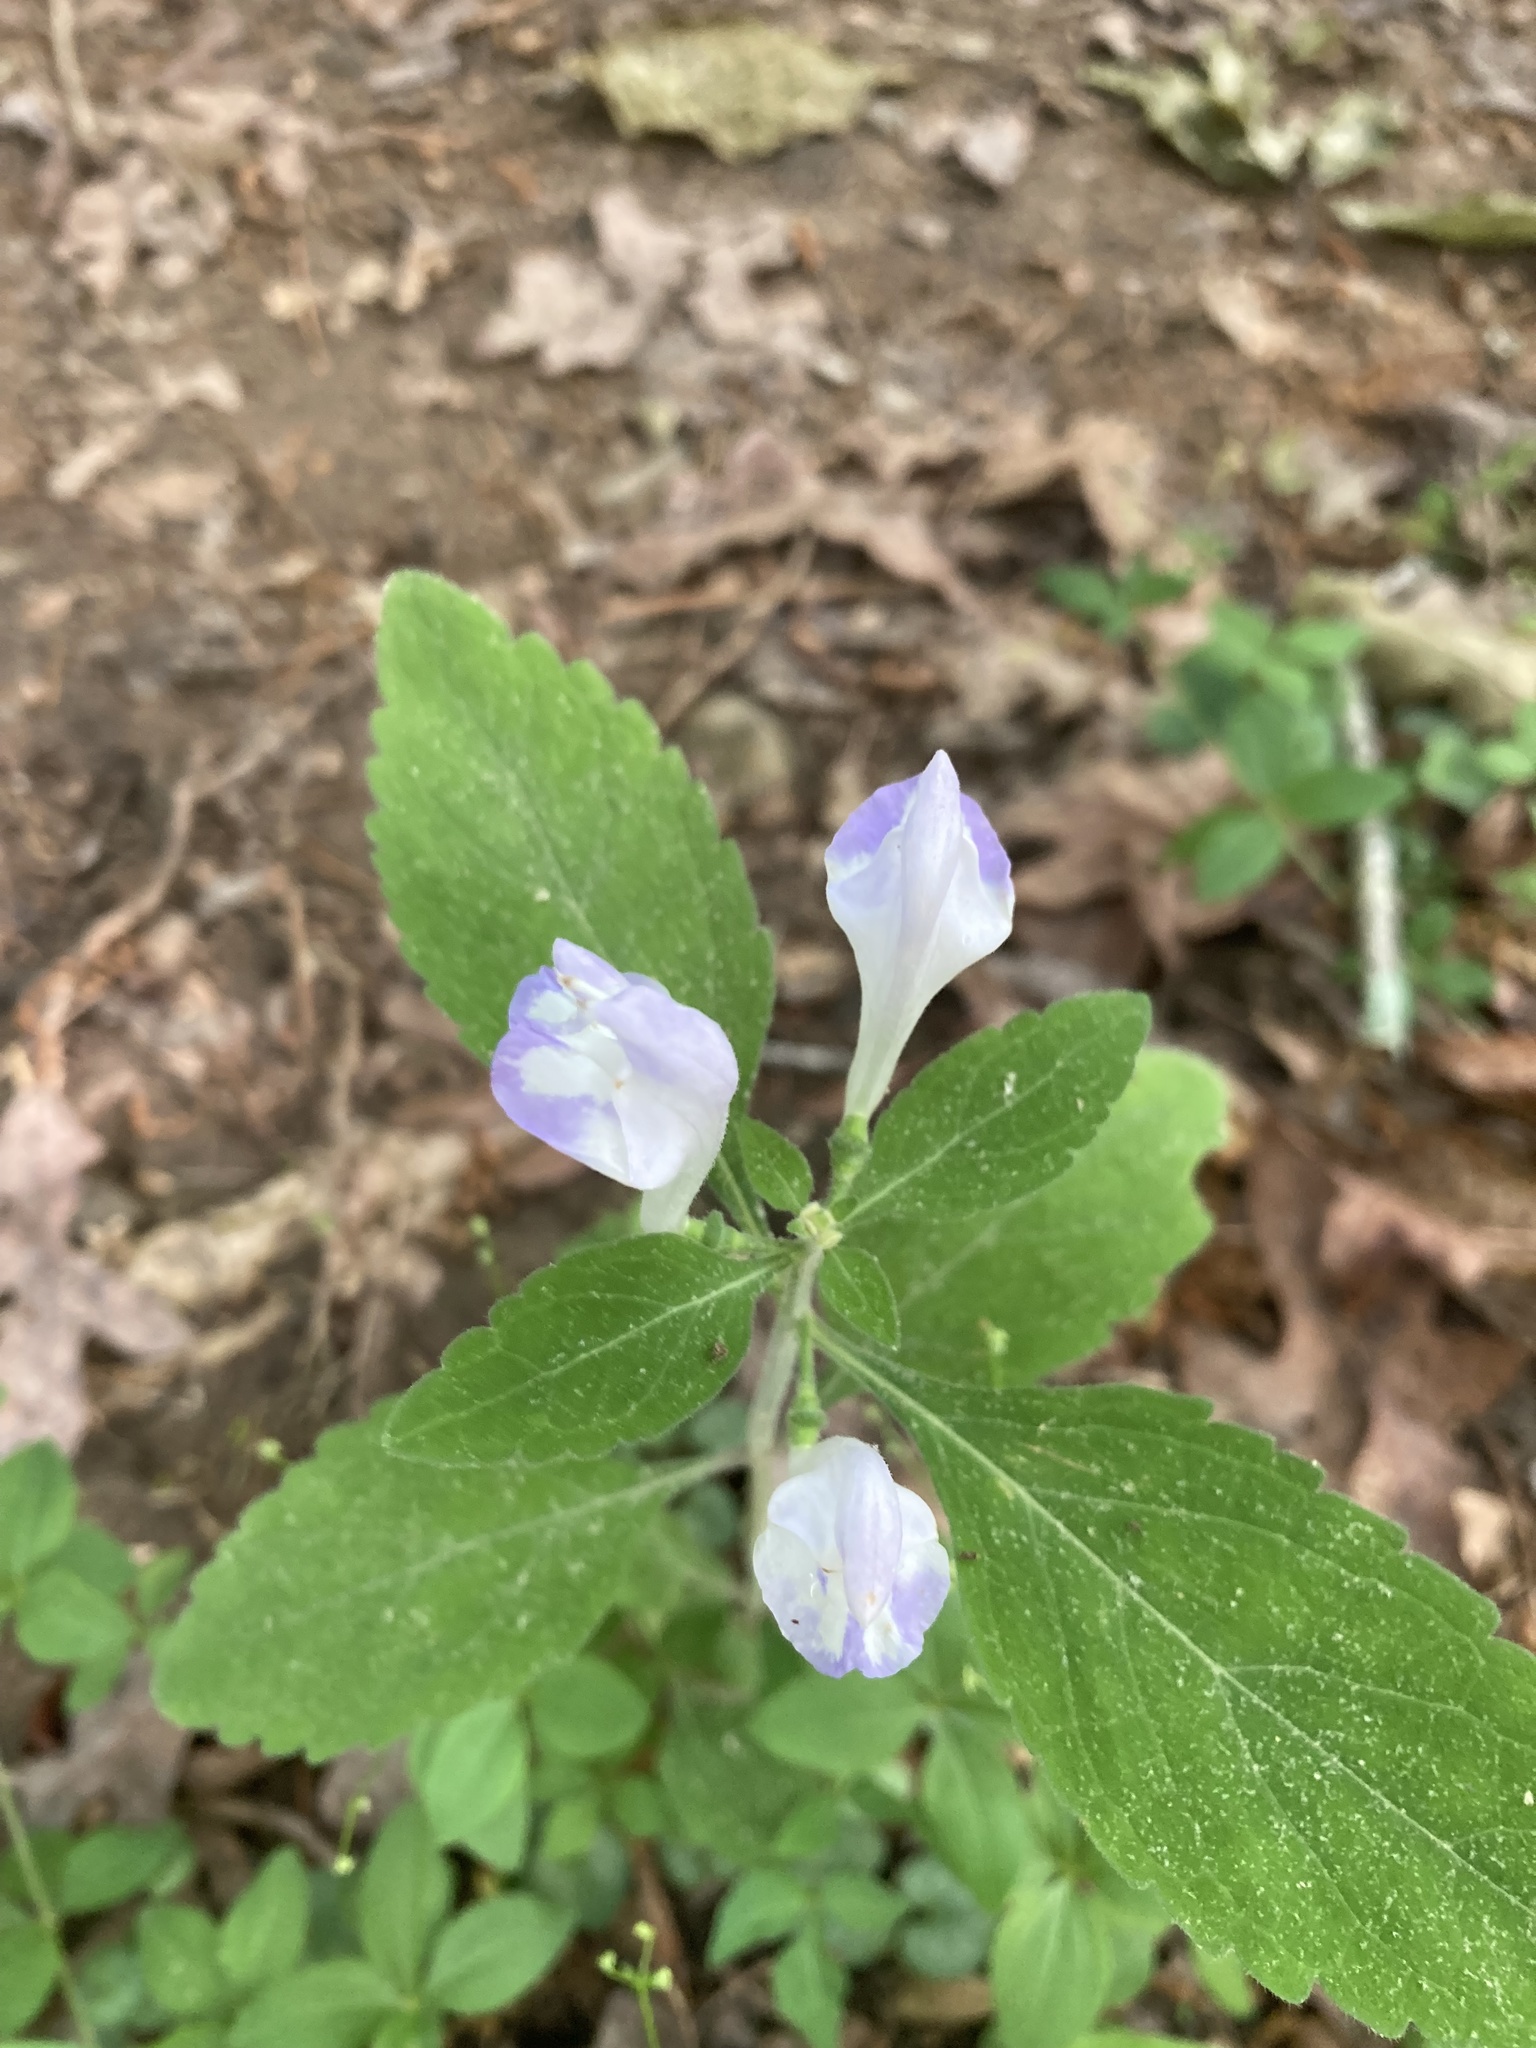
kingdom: Plantae
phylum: Tracheophyta
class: Magnoliopsida
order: Lamiales
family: Lamiaceae
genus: Scutellaria
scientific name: Scutellaria montana
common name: Large-flower skullcap
